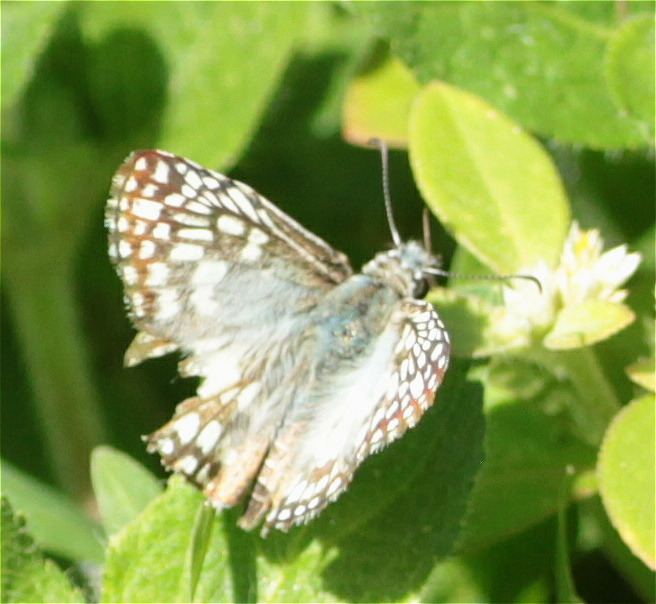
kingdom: Animalia
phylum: Arthropoda
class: Insecta
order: Lepidoptera
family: Hesperiidae
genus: Pyrgus
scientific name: Pyrgus oileus
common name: Tropical checkered-skipper
